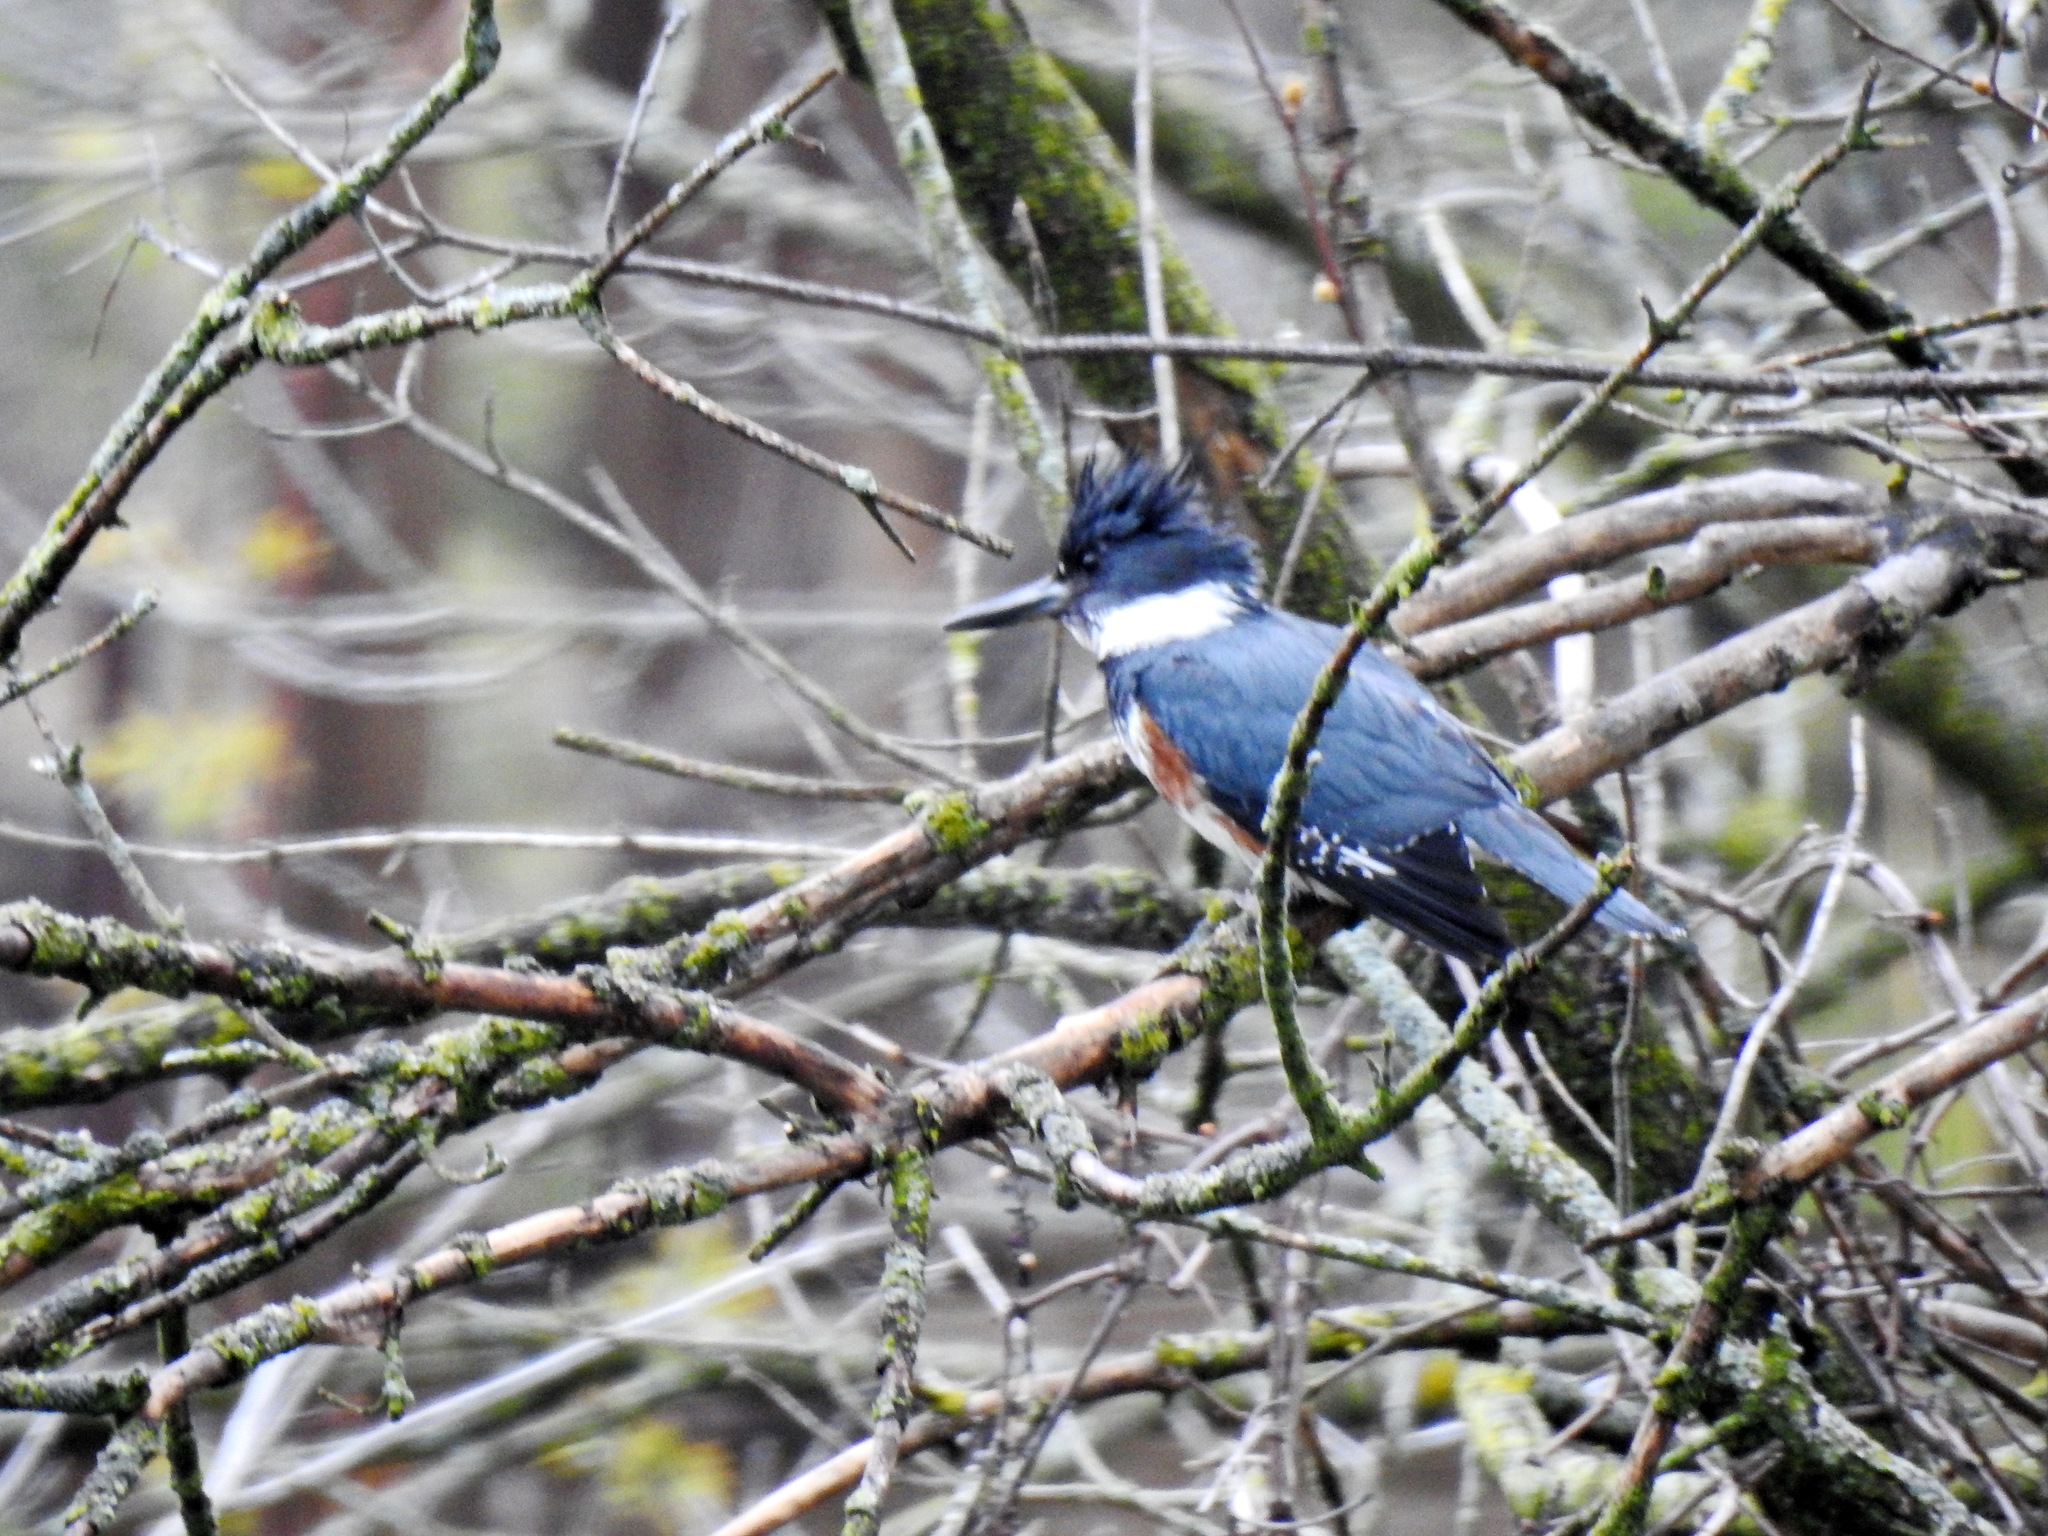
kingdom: Animalia
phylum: Chordata
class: Aves
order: Coraciiformes
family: Alcedinidae
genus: Megaceryle
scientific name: Megaceryle alcyon
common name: Belted kingfisher
